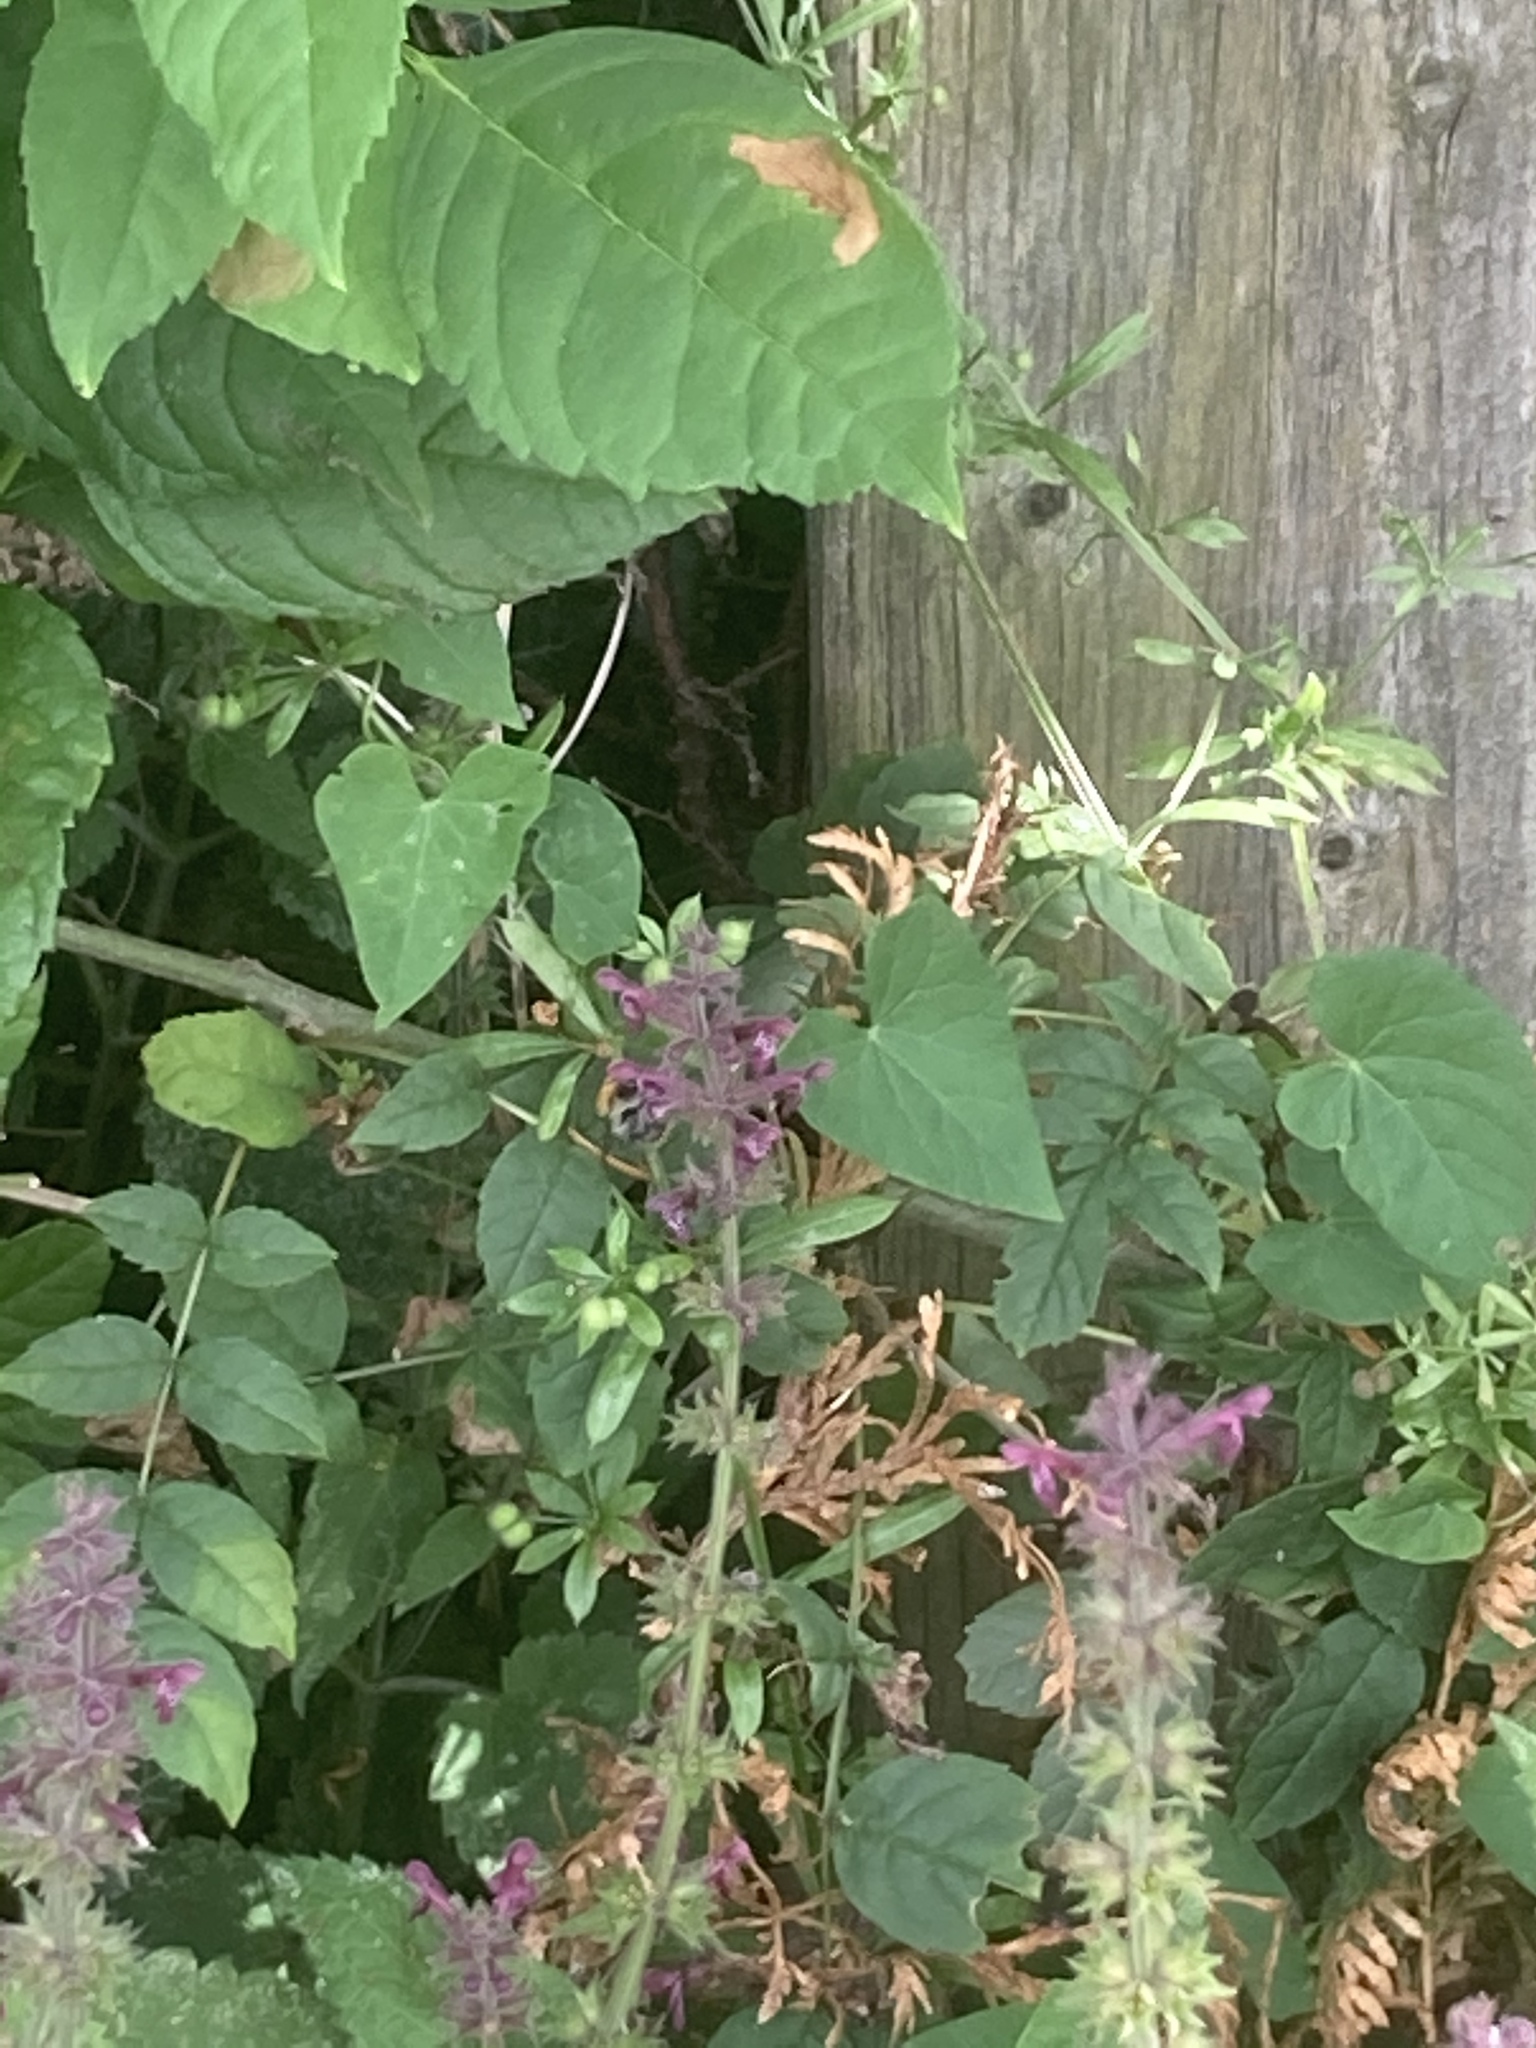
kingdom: Plantae
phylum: Tracheophyta
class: Magnoliopsida
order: Lamiales
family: Lamiaceae
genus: Stachys
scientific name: Stachys sylvatica
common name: Hedge woundwort
